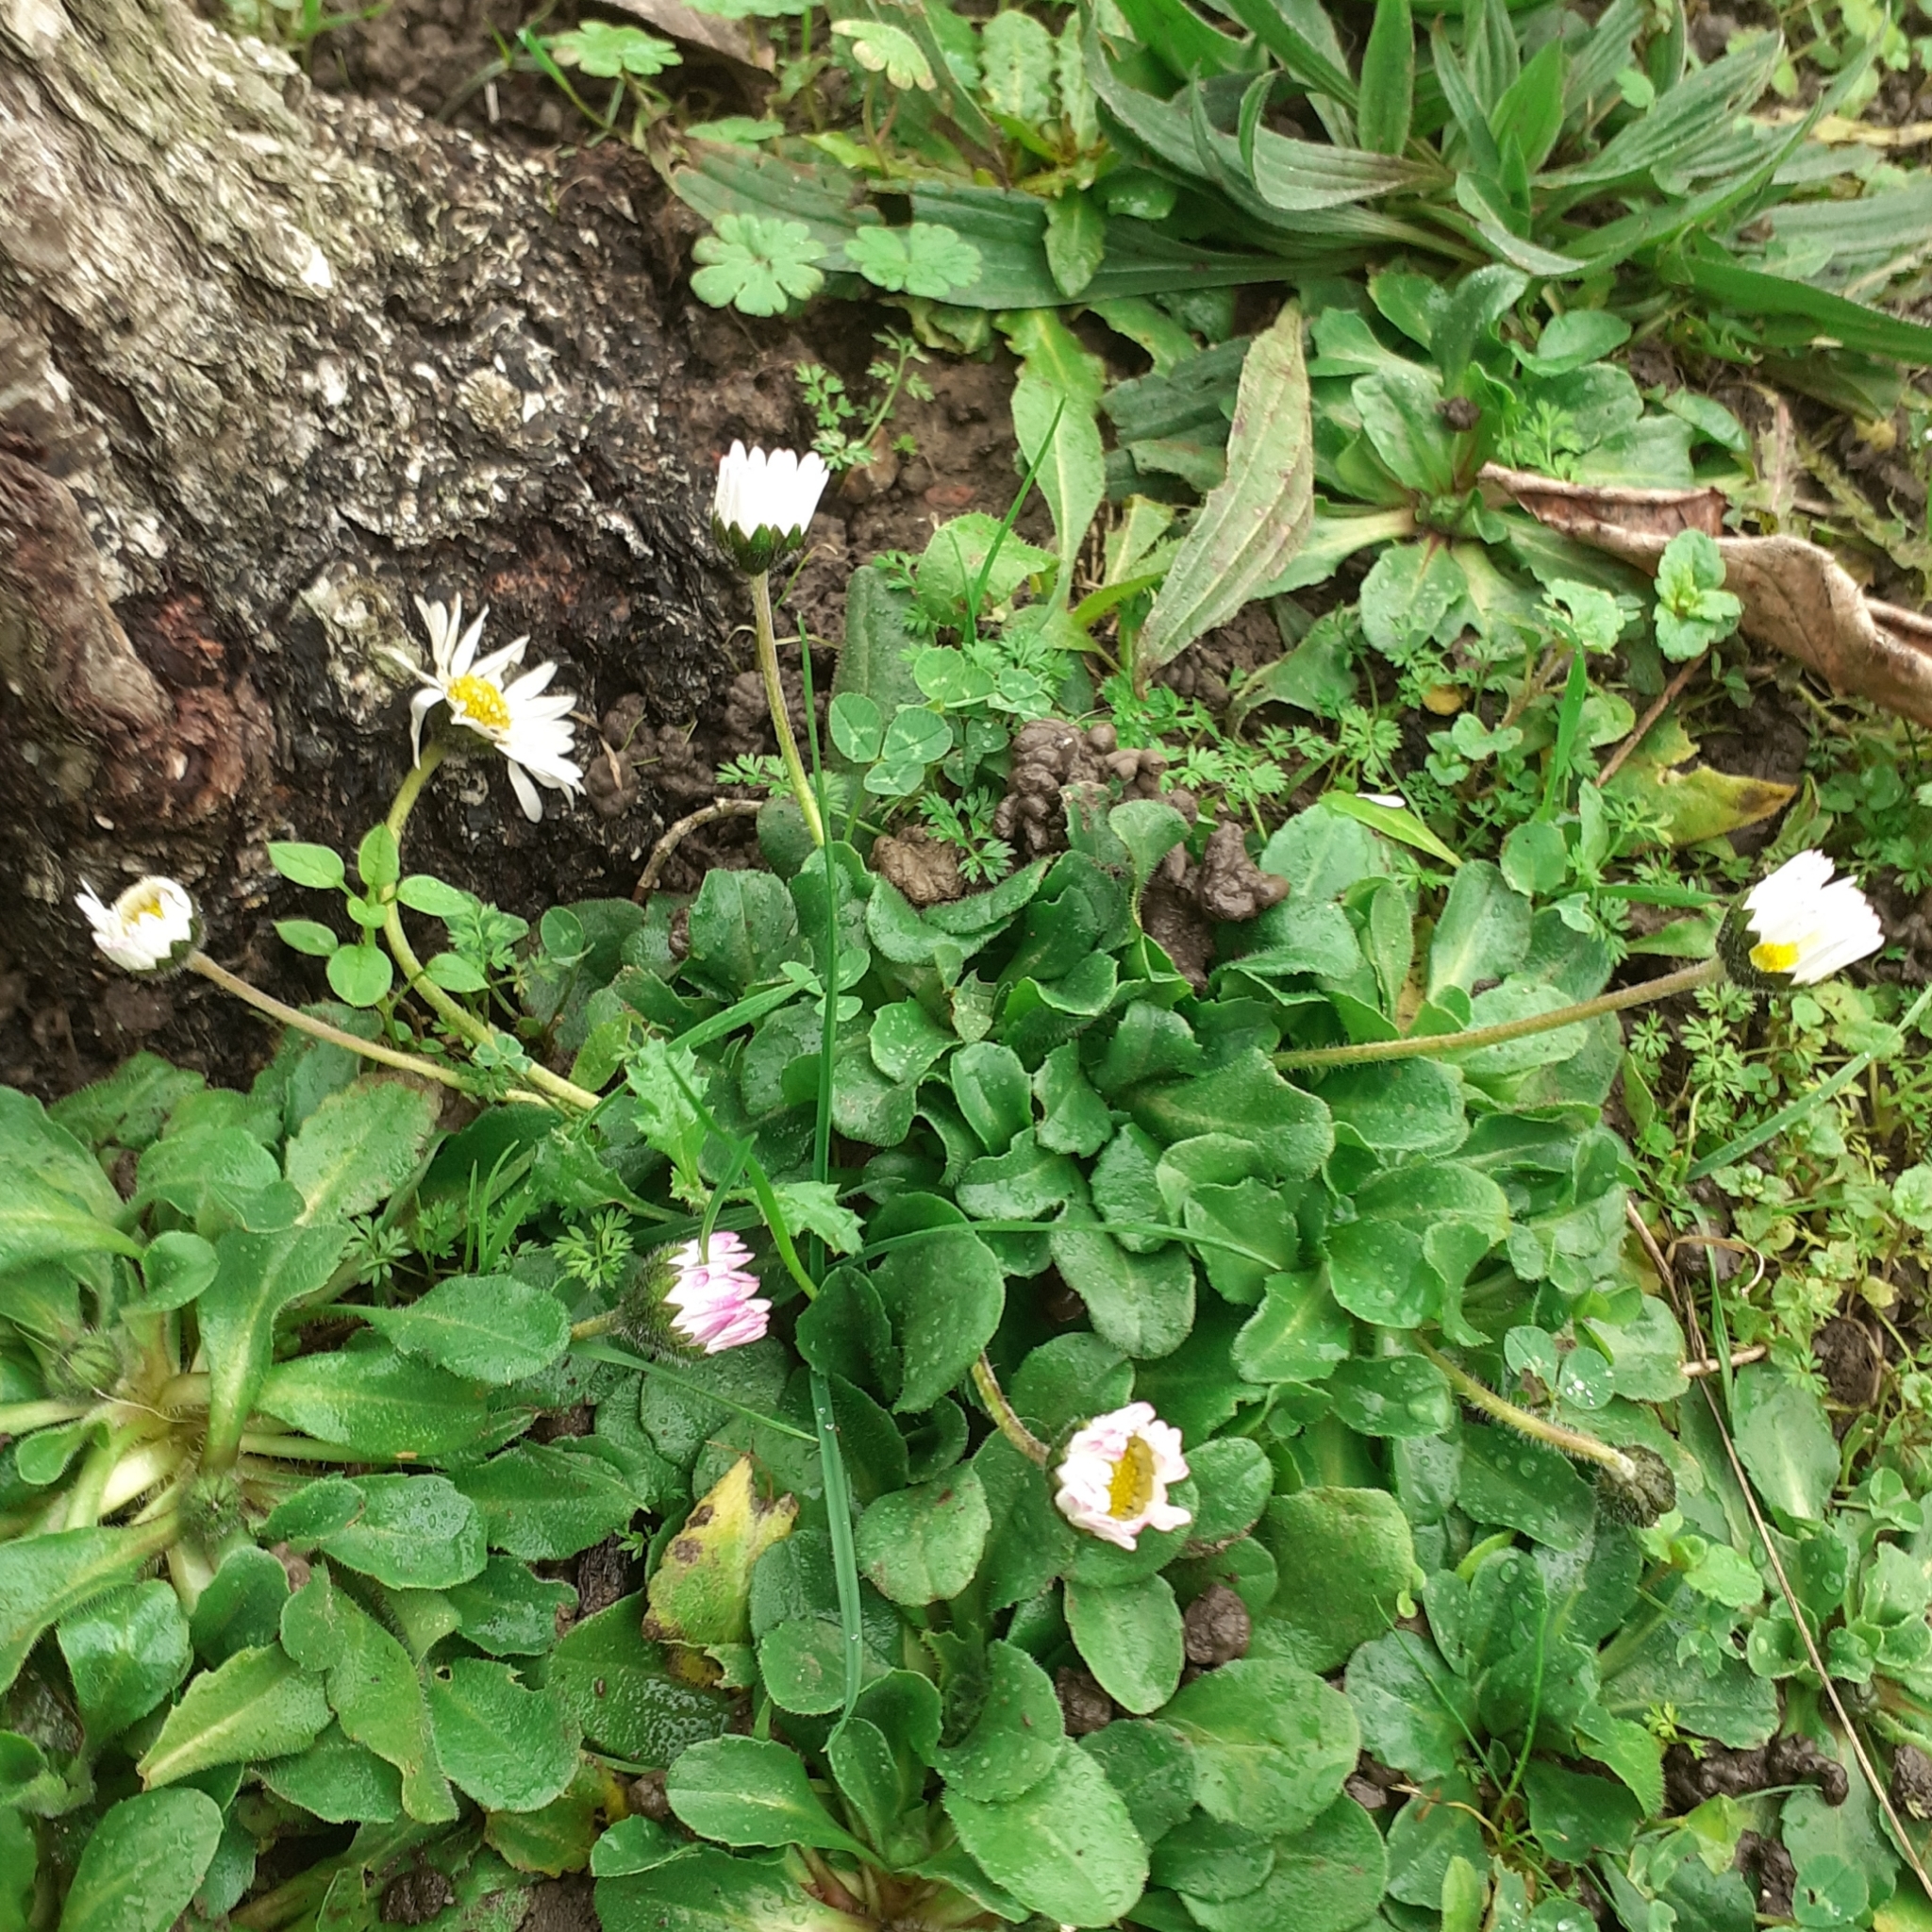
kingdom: Plantae
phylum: Tracheophyta
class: Magnoliopsida
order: Asterales
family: Asteraceae
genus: Bellis
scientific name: Bellis perennis
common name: Lawndaisy
